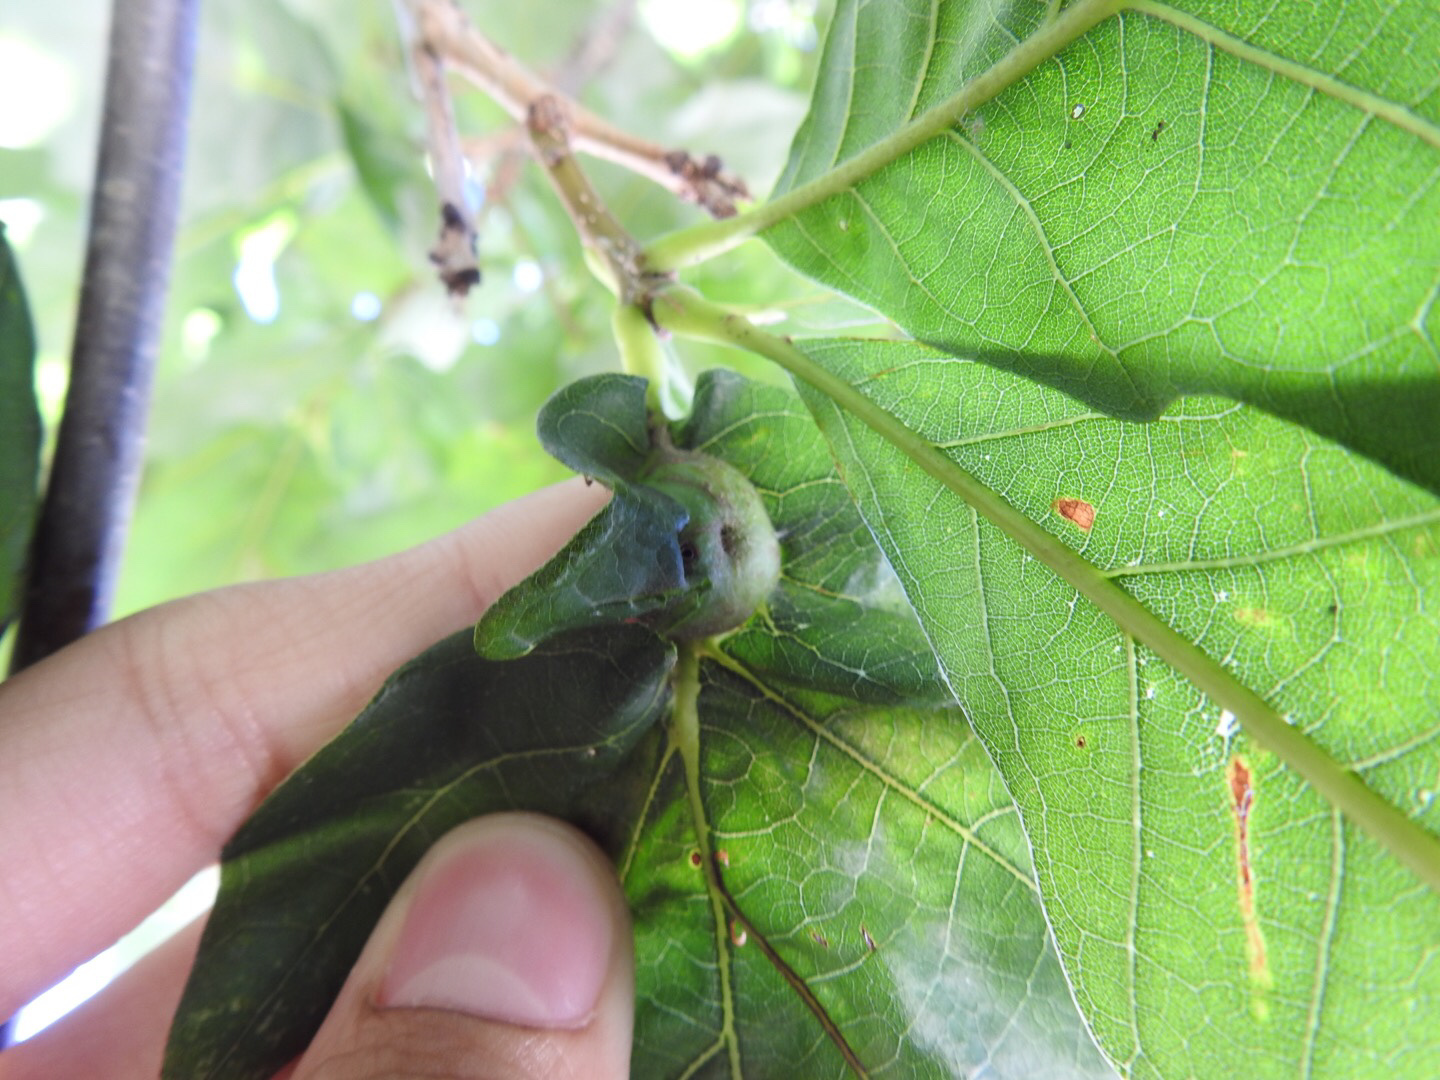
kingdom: Animalia
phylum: Arthropoda
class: Insecta
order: Hymenoptera
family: Cynipidae
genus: Andricus
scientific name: Andricus
